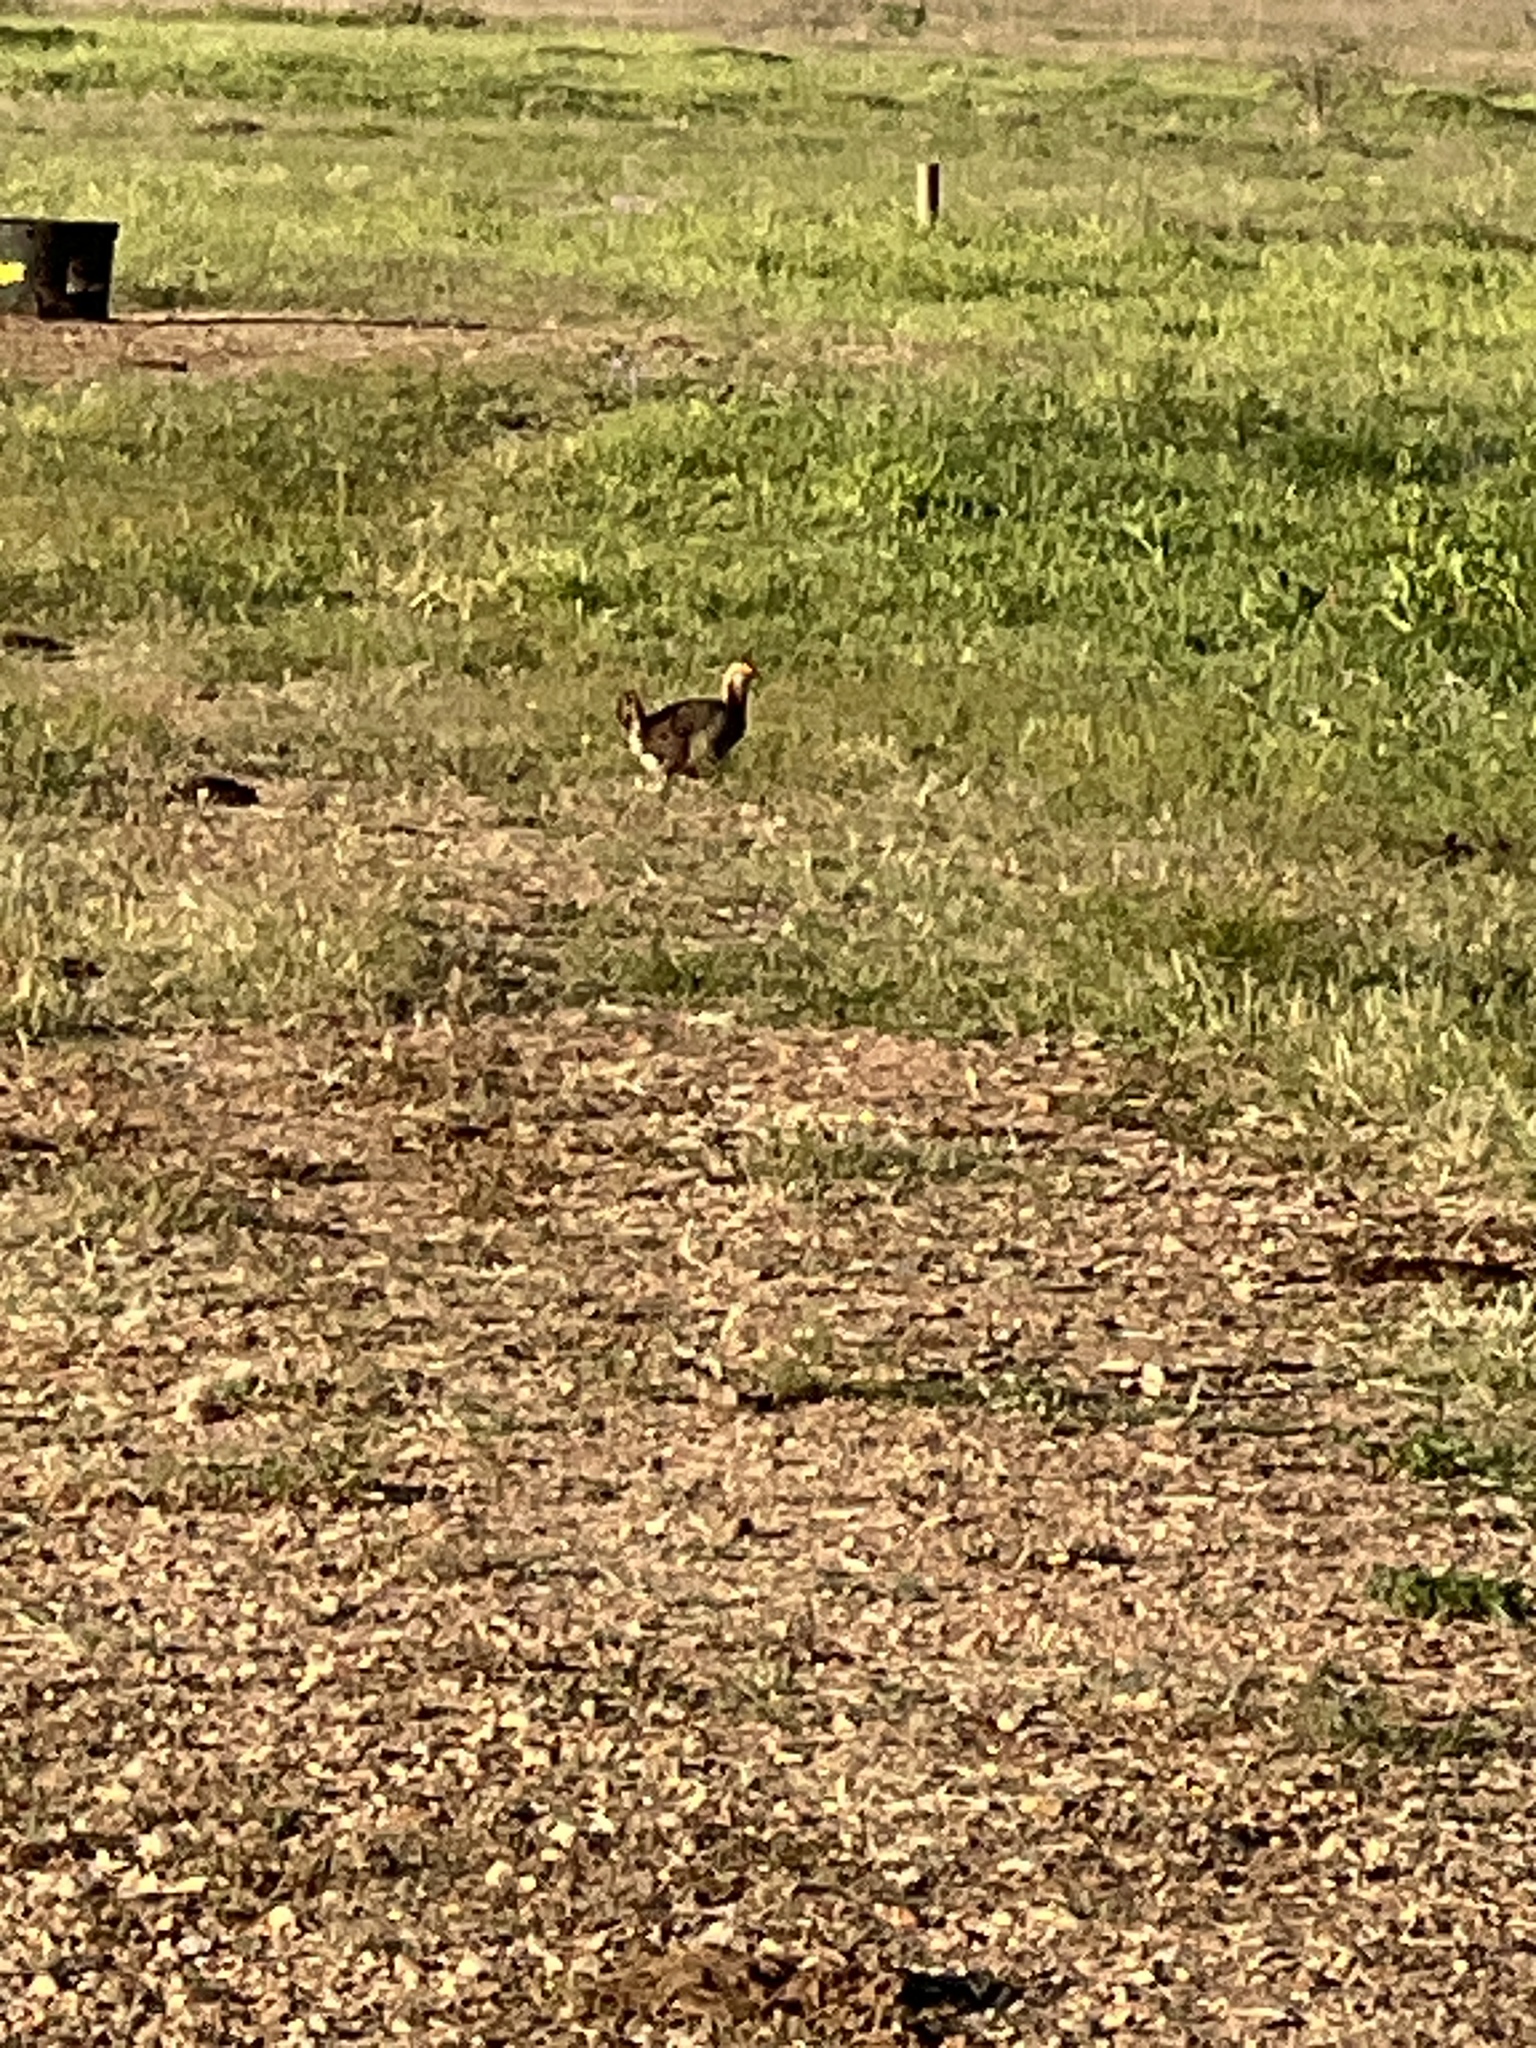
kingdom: Animalia
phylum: Chordata
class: Aves
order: Galliformes
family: Phasianidae
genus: Tympanuchus
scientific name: Tympanuchus cupido
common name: Greater prairie chicken
